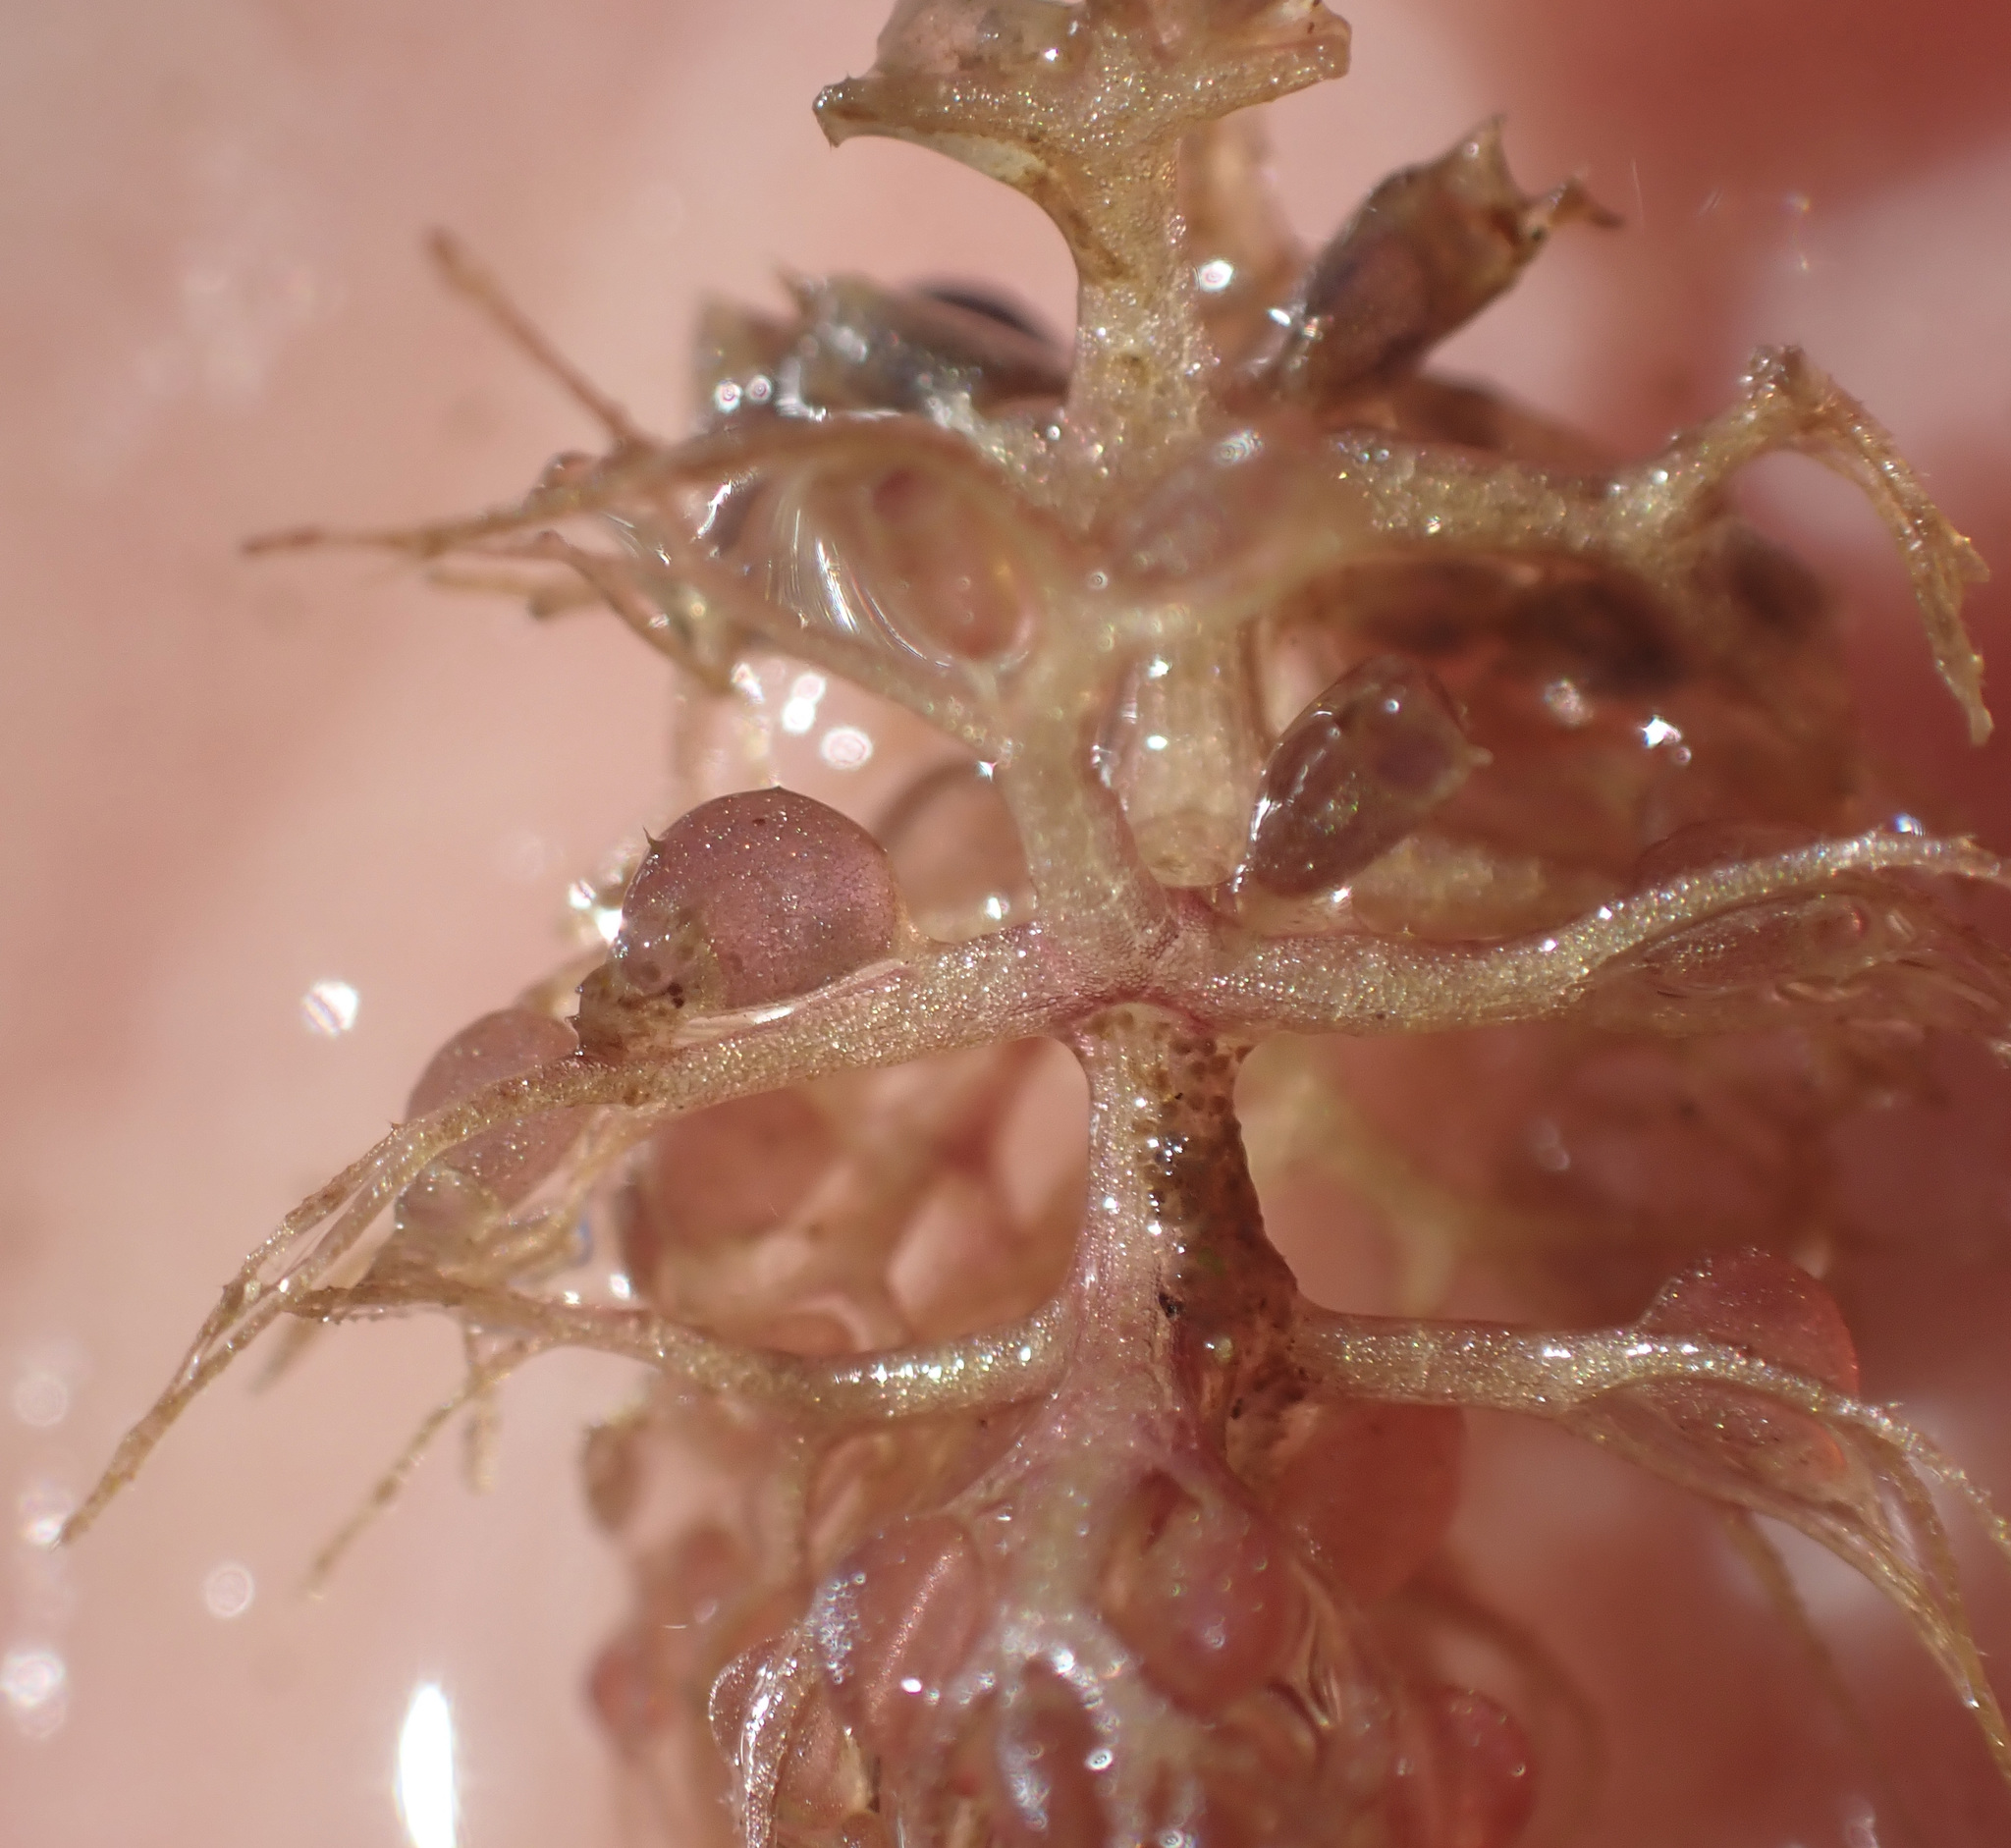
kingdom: Plantae
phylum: Tracheophyta
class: Magnoliopsida
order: Lamiales
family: Lentibulariaceae
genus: Utricularia
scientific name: Utricularia raynalii
